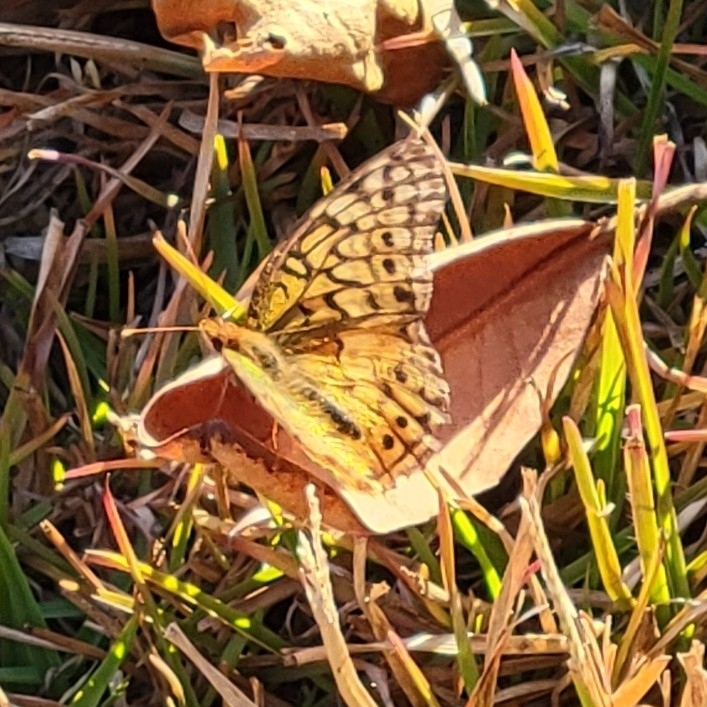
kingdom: Animalia
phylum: Arthropoda
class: Insecta
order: Lepidoptera
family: Nymphalidae
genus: Euptoieta
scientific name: Euptoieta claudia
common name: Variegated fritillary
